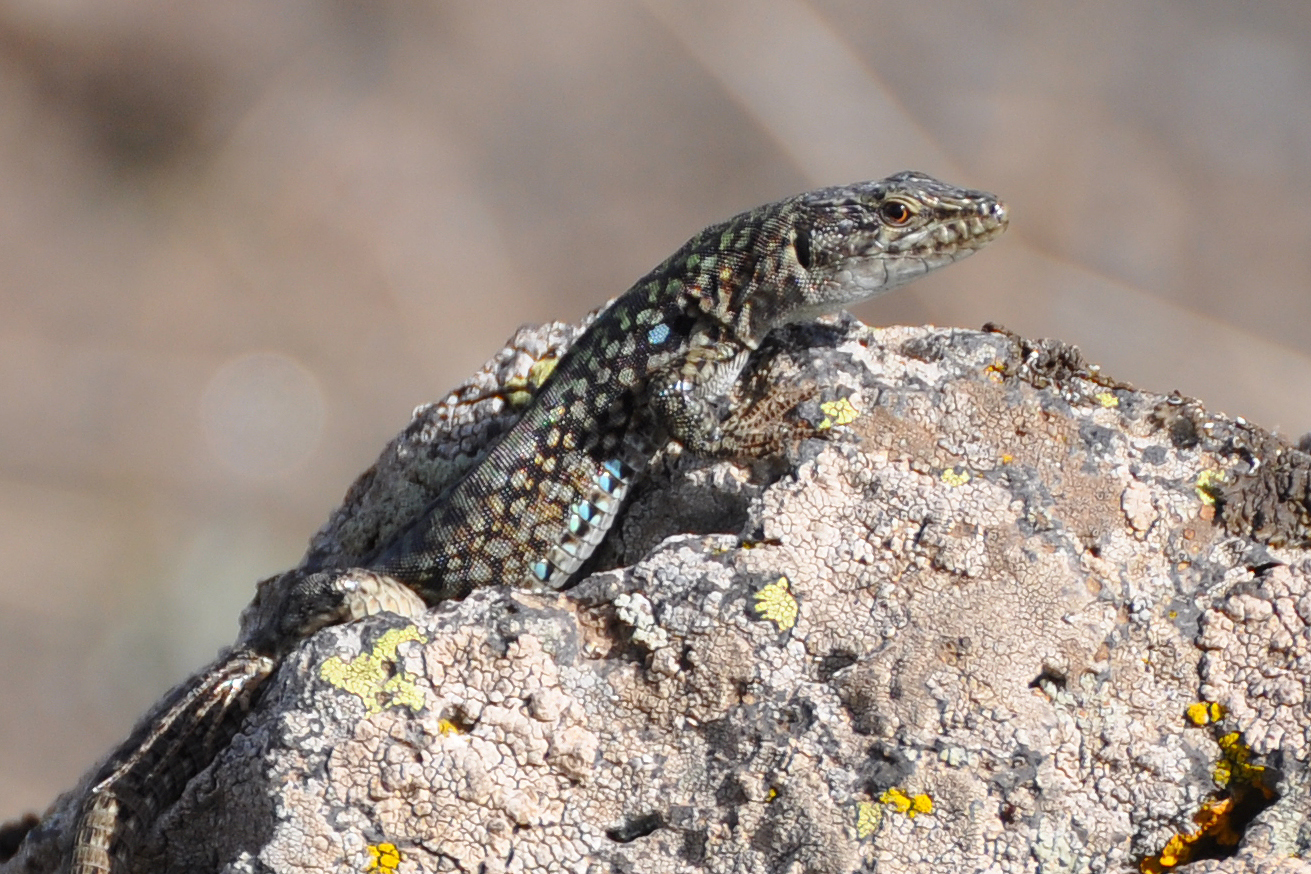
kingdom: Animalia
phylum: Chordata
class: Squamata
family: Lacertidae
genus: Podarcis
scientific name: Podarcis siculus
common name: Italian wall lizard
